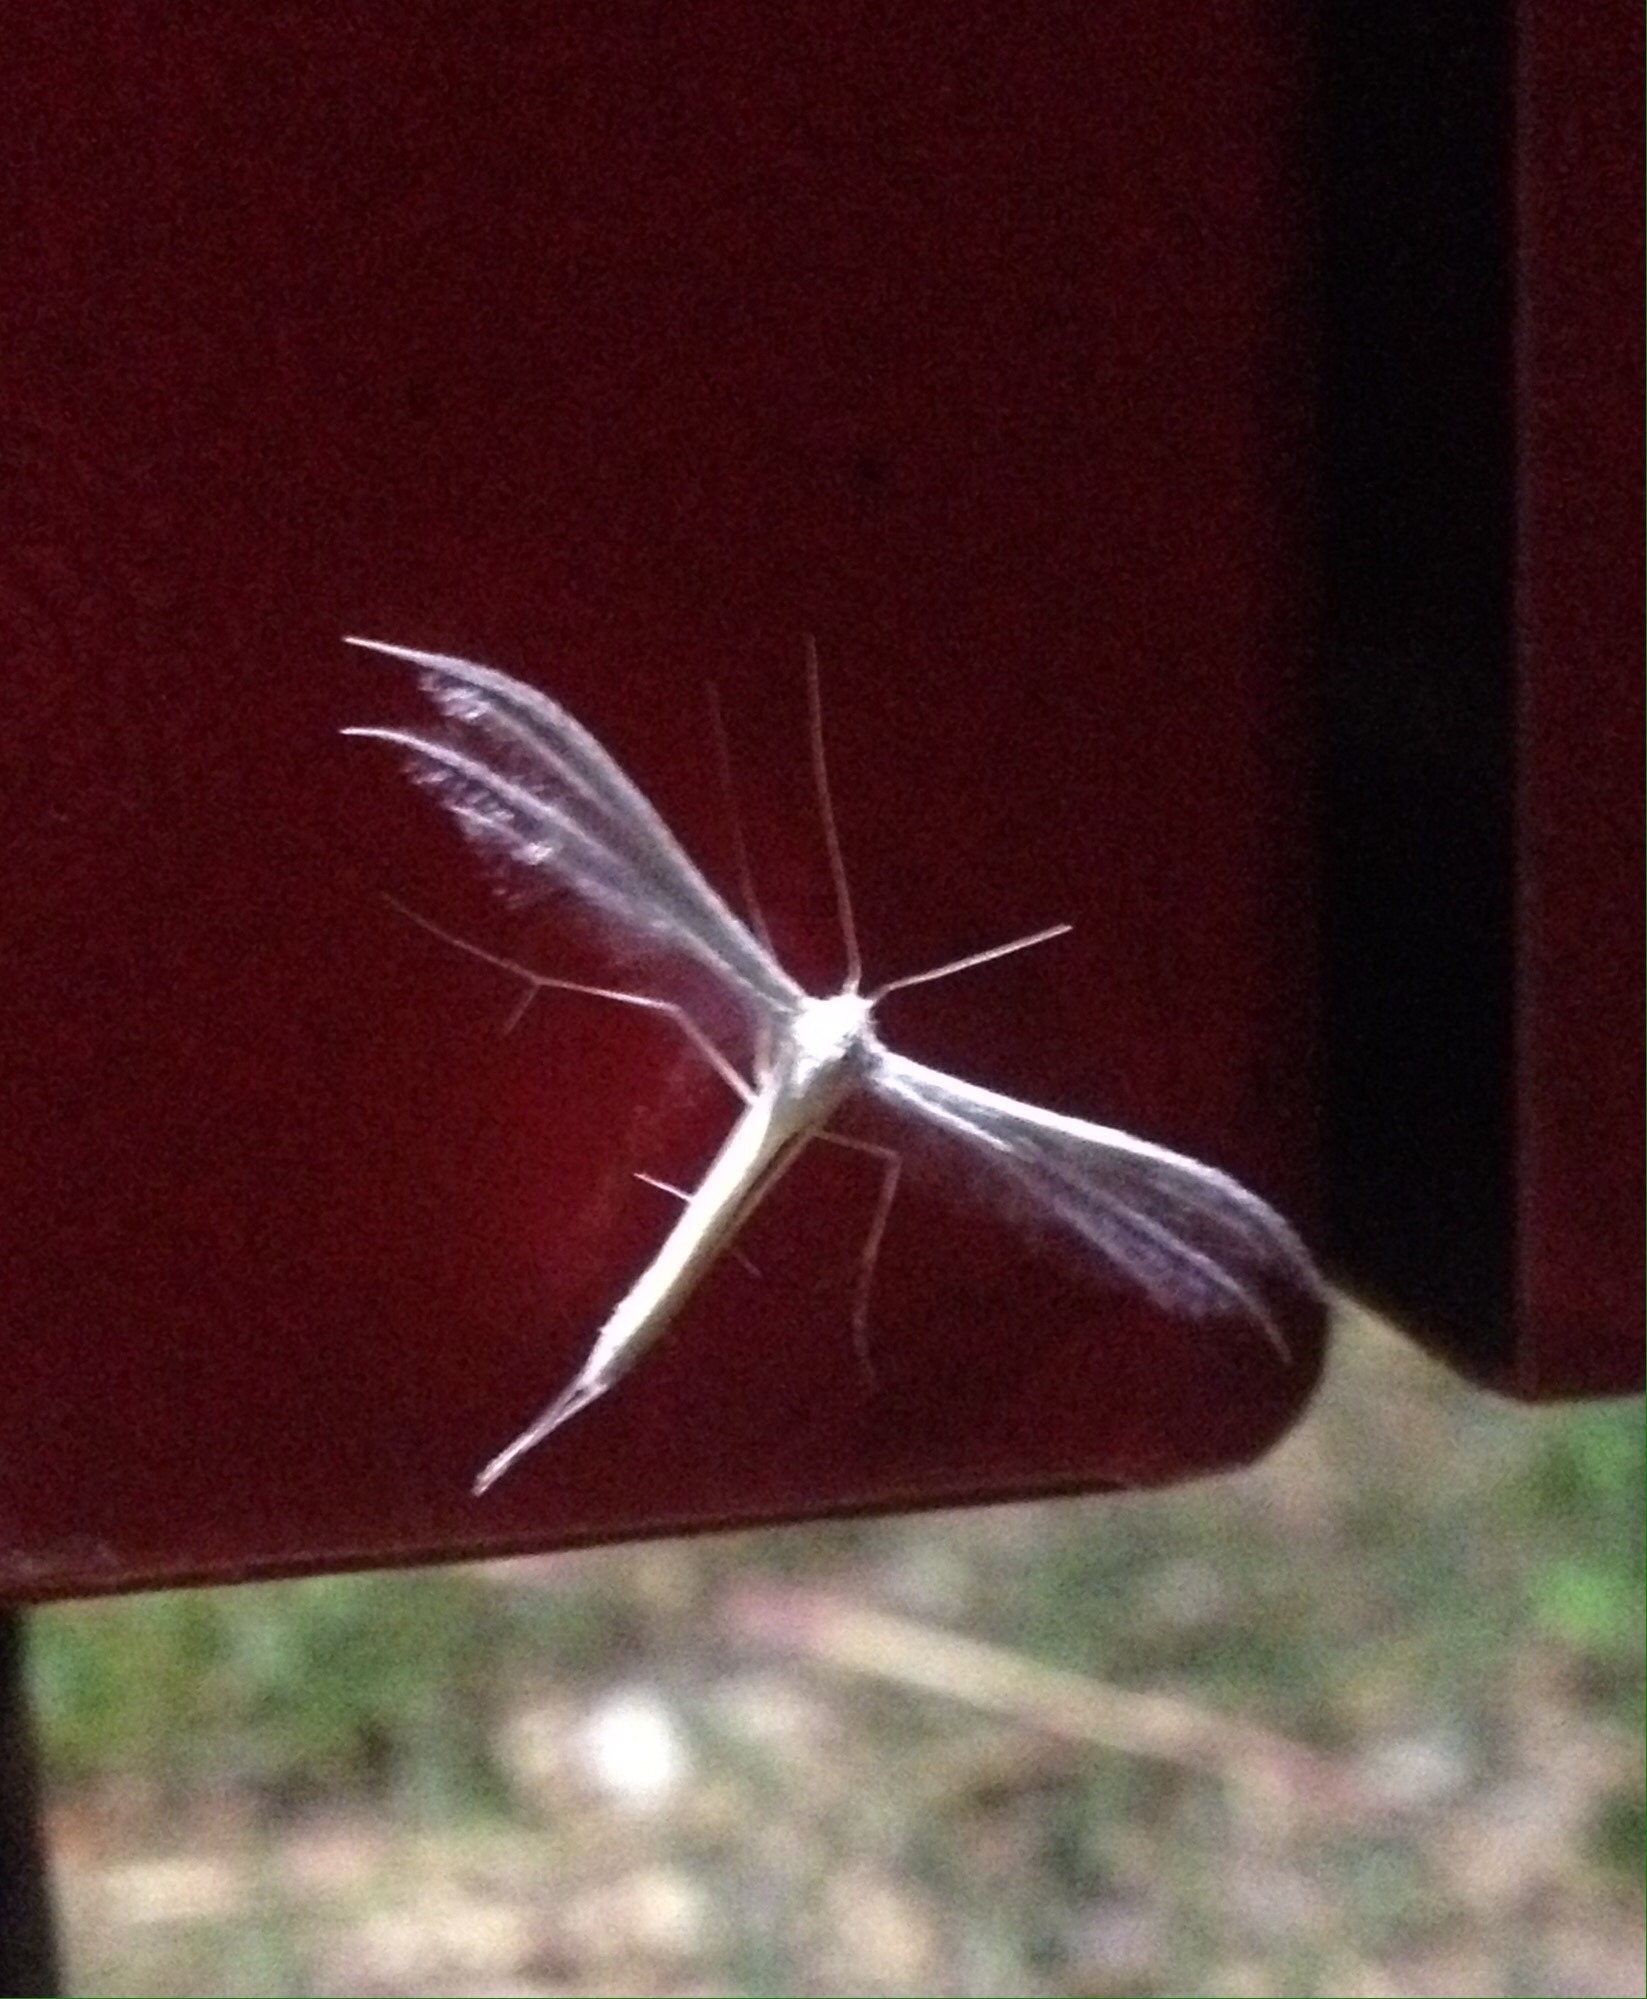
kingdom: Animalia
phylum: Arthropoda
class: Insecta
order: Lepidoptera
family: Pterophoridae
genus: Pterophorus
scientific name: Pterophorus pentadactyla
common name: White plume moth
